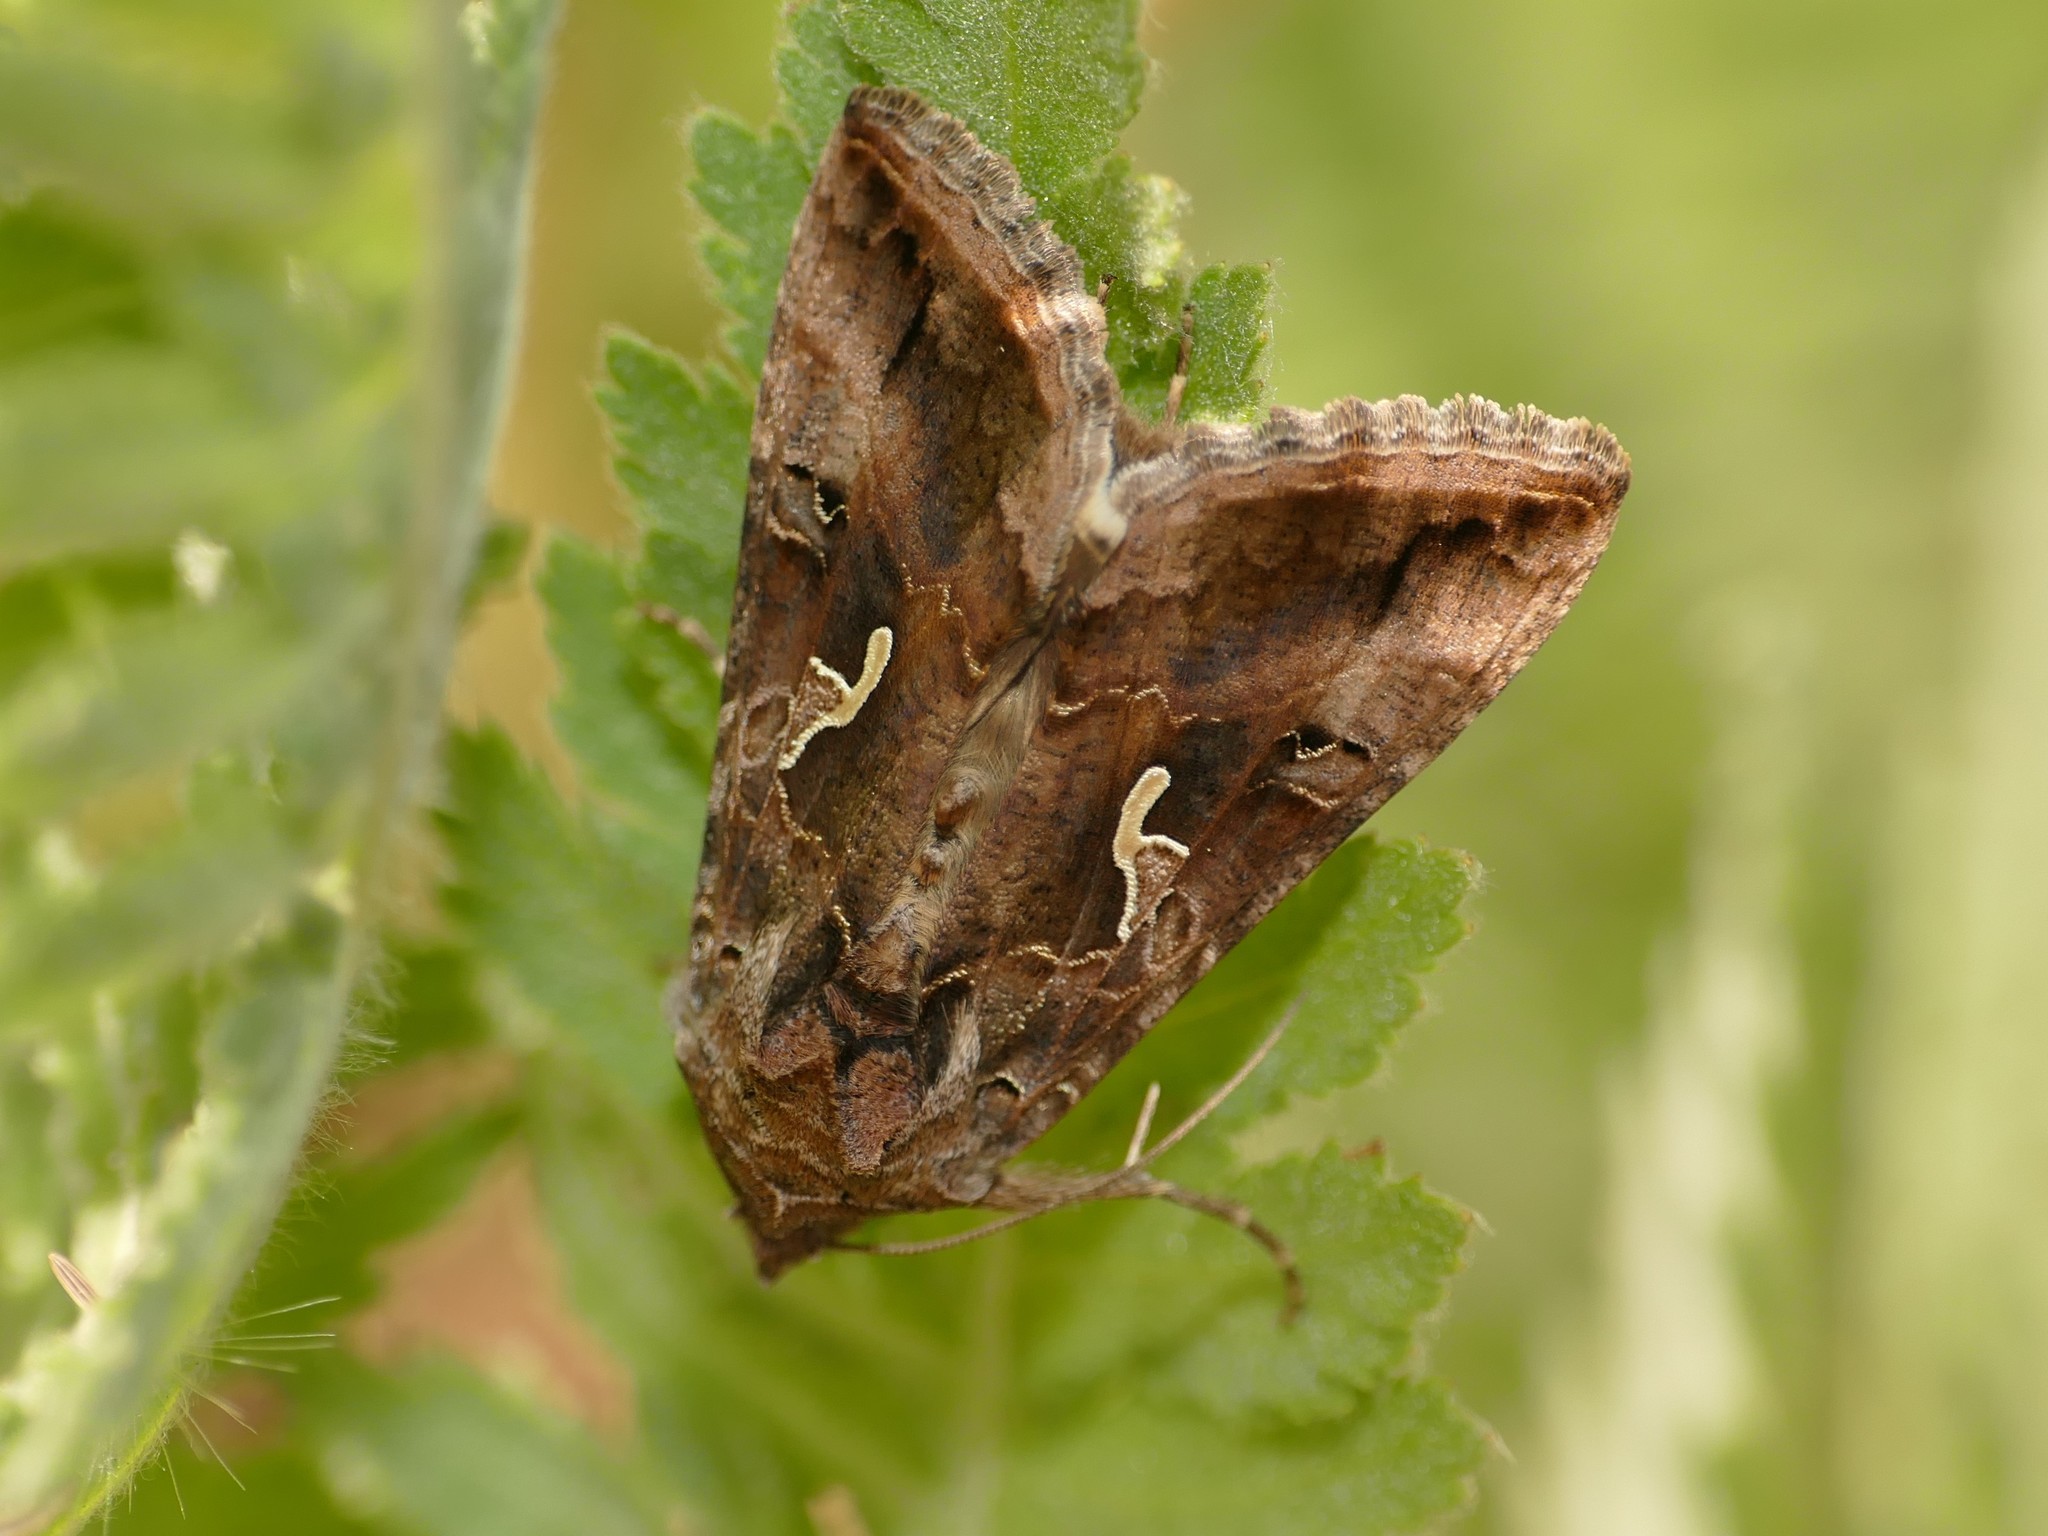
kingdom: Animalia
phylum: Arthropoda
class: Insecta
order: Lepidoptera
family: Noctuidae
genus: Autographa
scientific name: Autographa gamma
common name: Silver y
